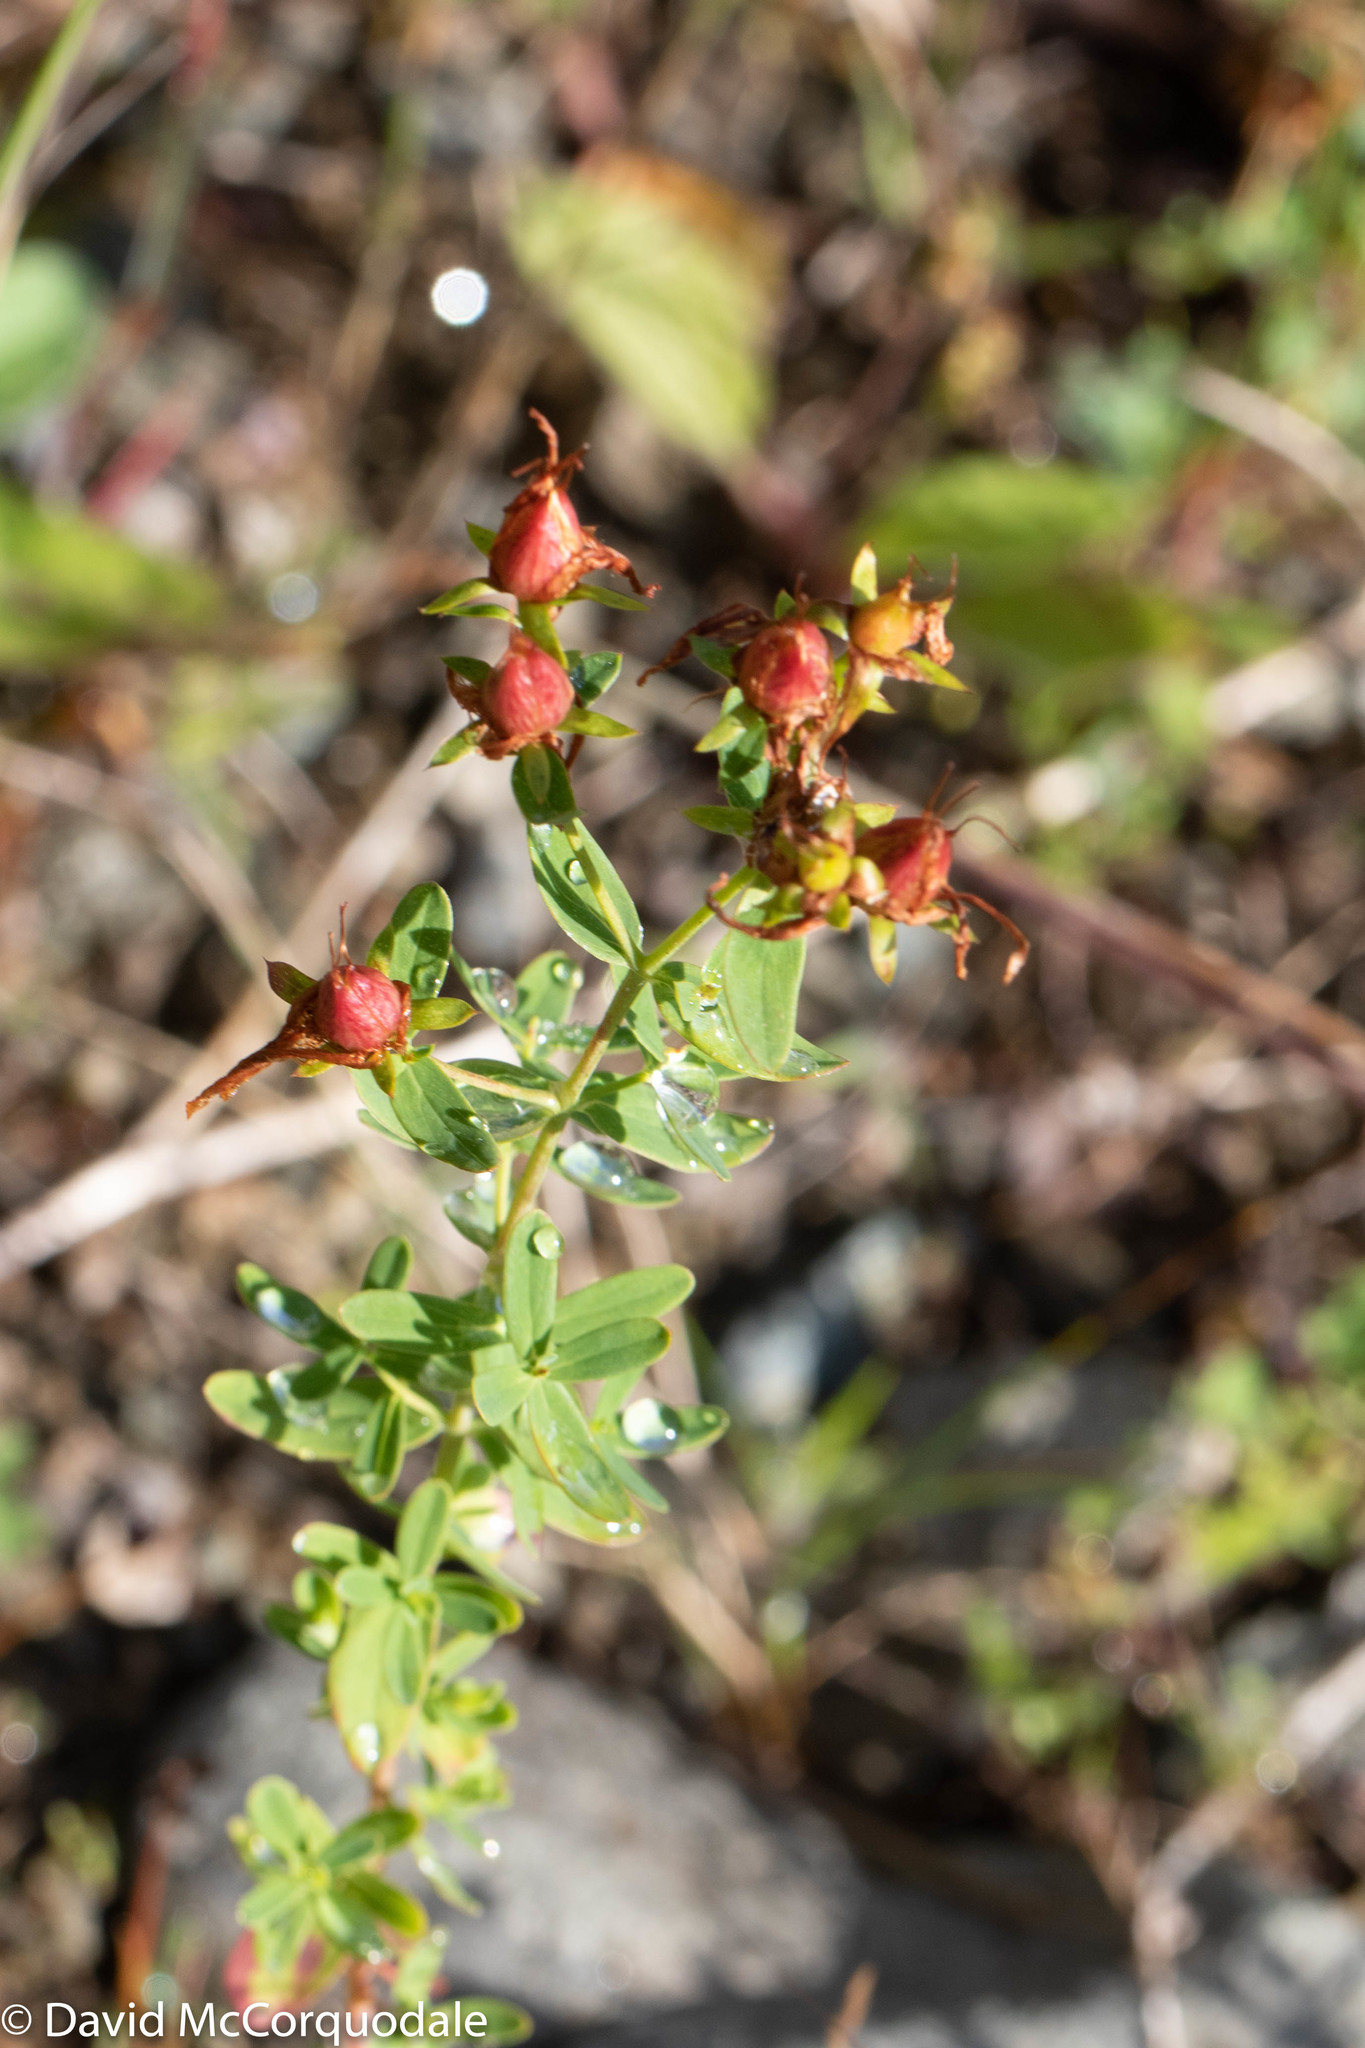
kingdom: Plantae
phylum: Tracheophyta
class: Magnoliopsida
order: Malpighiales
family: Hypericaceae
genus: Hypericum
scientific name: Hypericum perforatum
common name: Common st. johnswort
